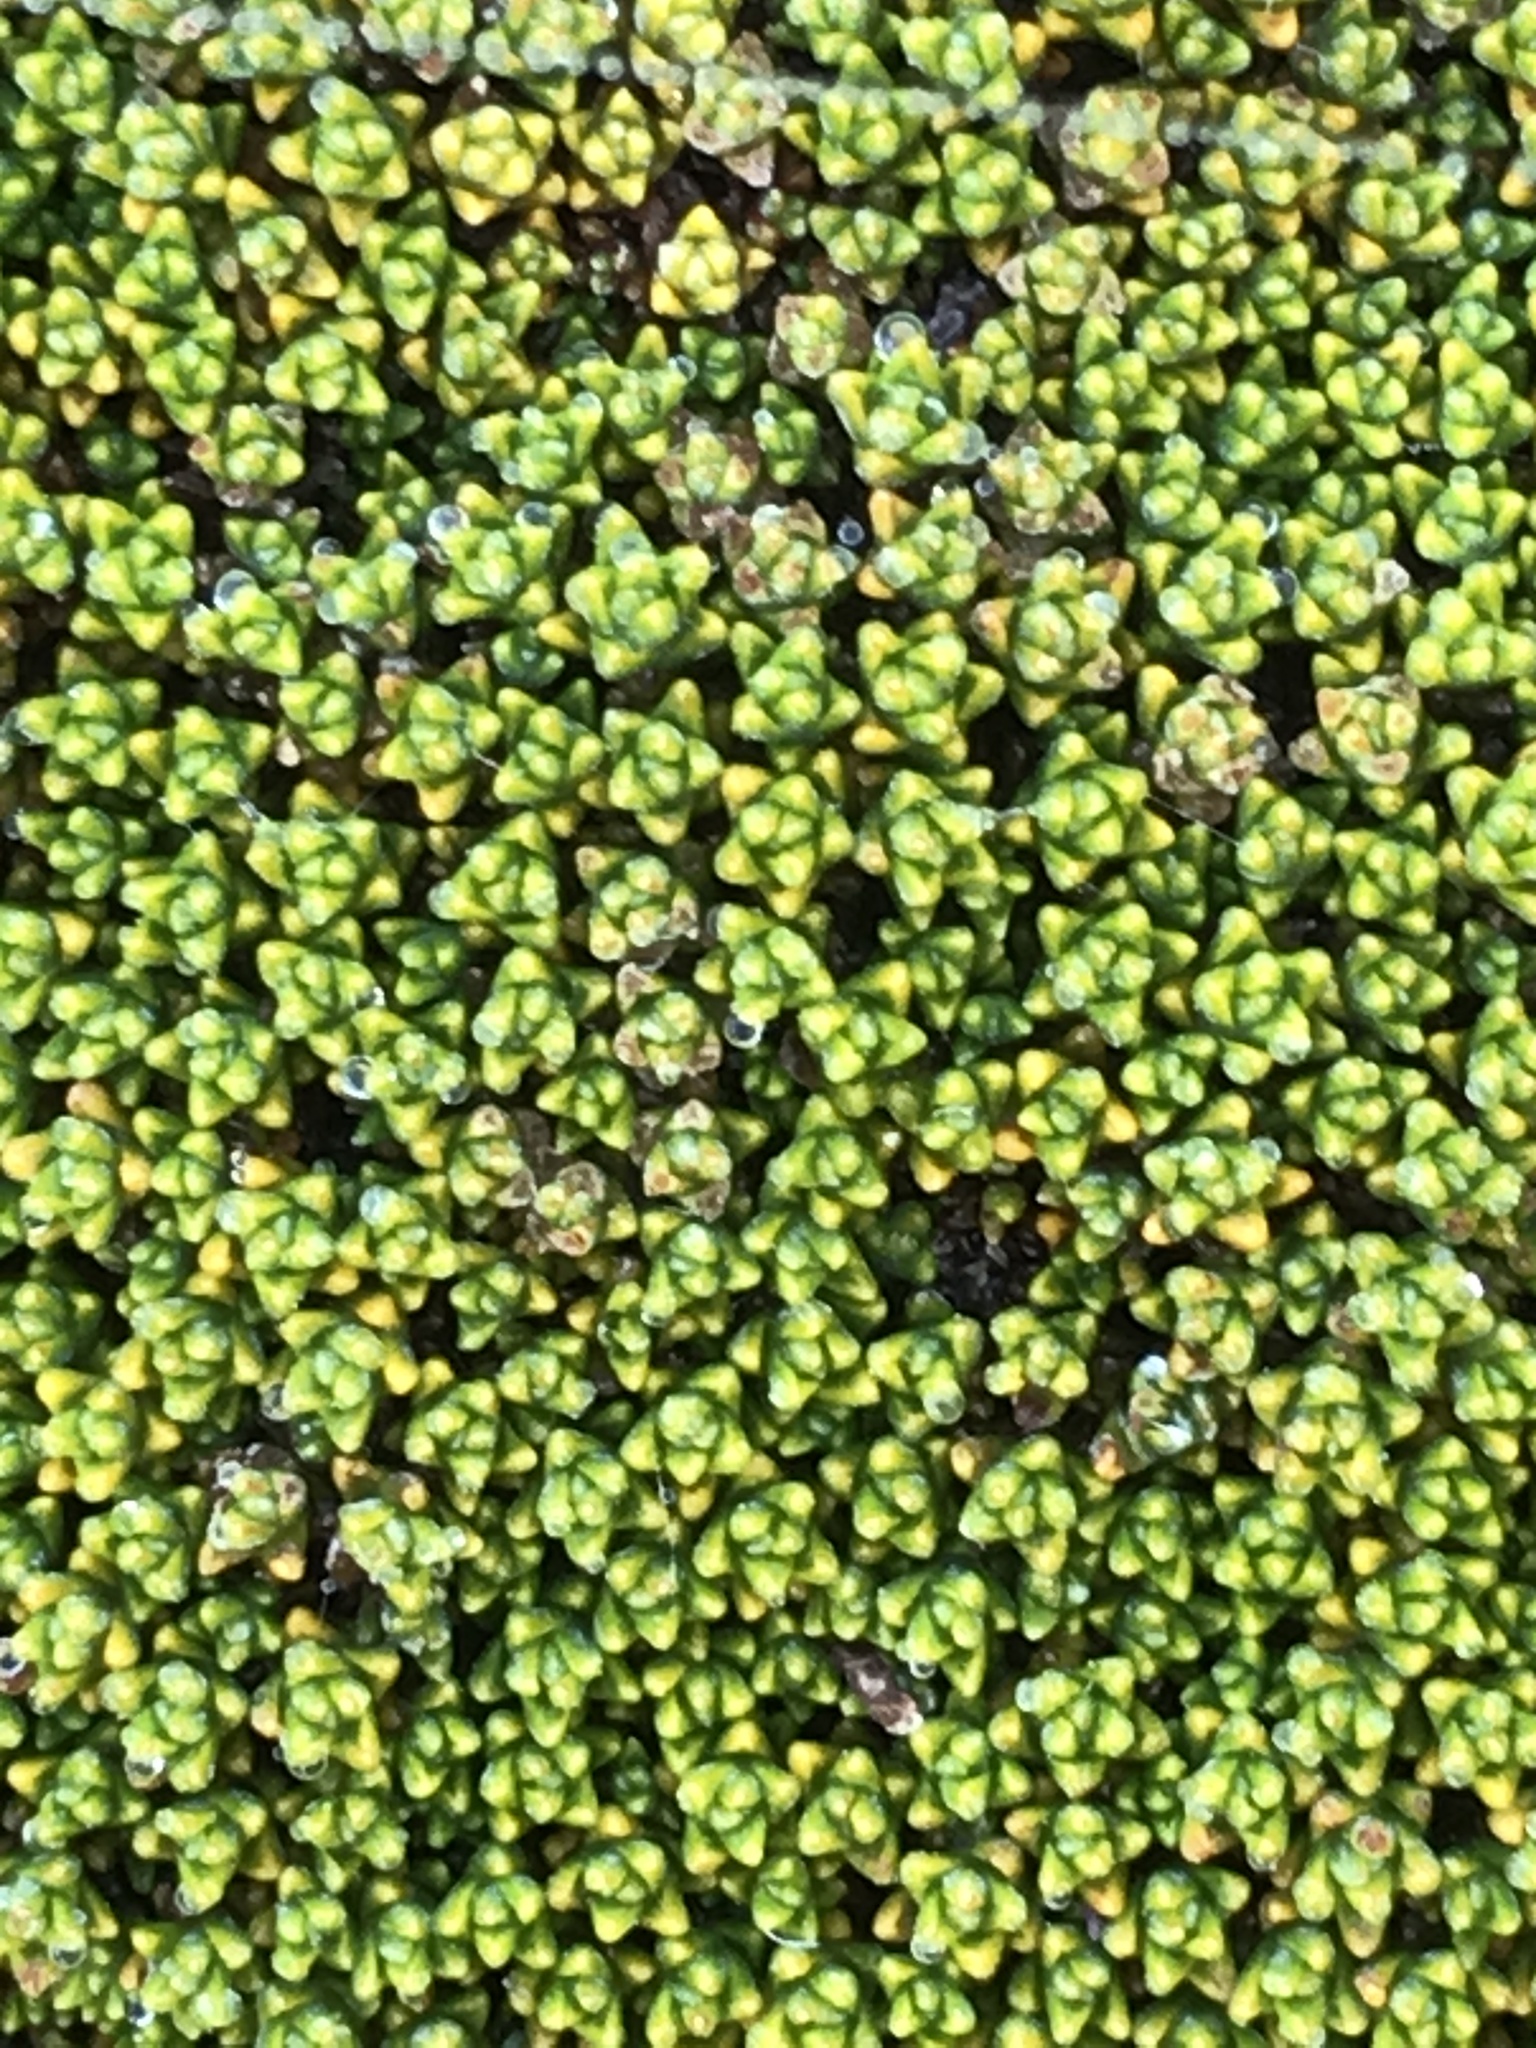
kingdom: Plantae
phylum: Tracheophyta
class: Magnoliopsida
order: Asterales
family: Asteraceae
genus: Raoulia
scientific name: Raoulia haastii
